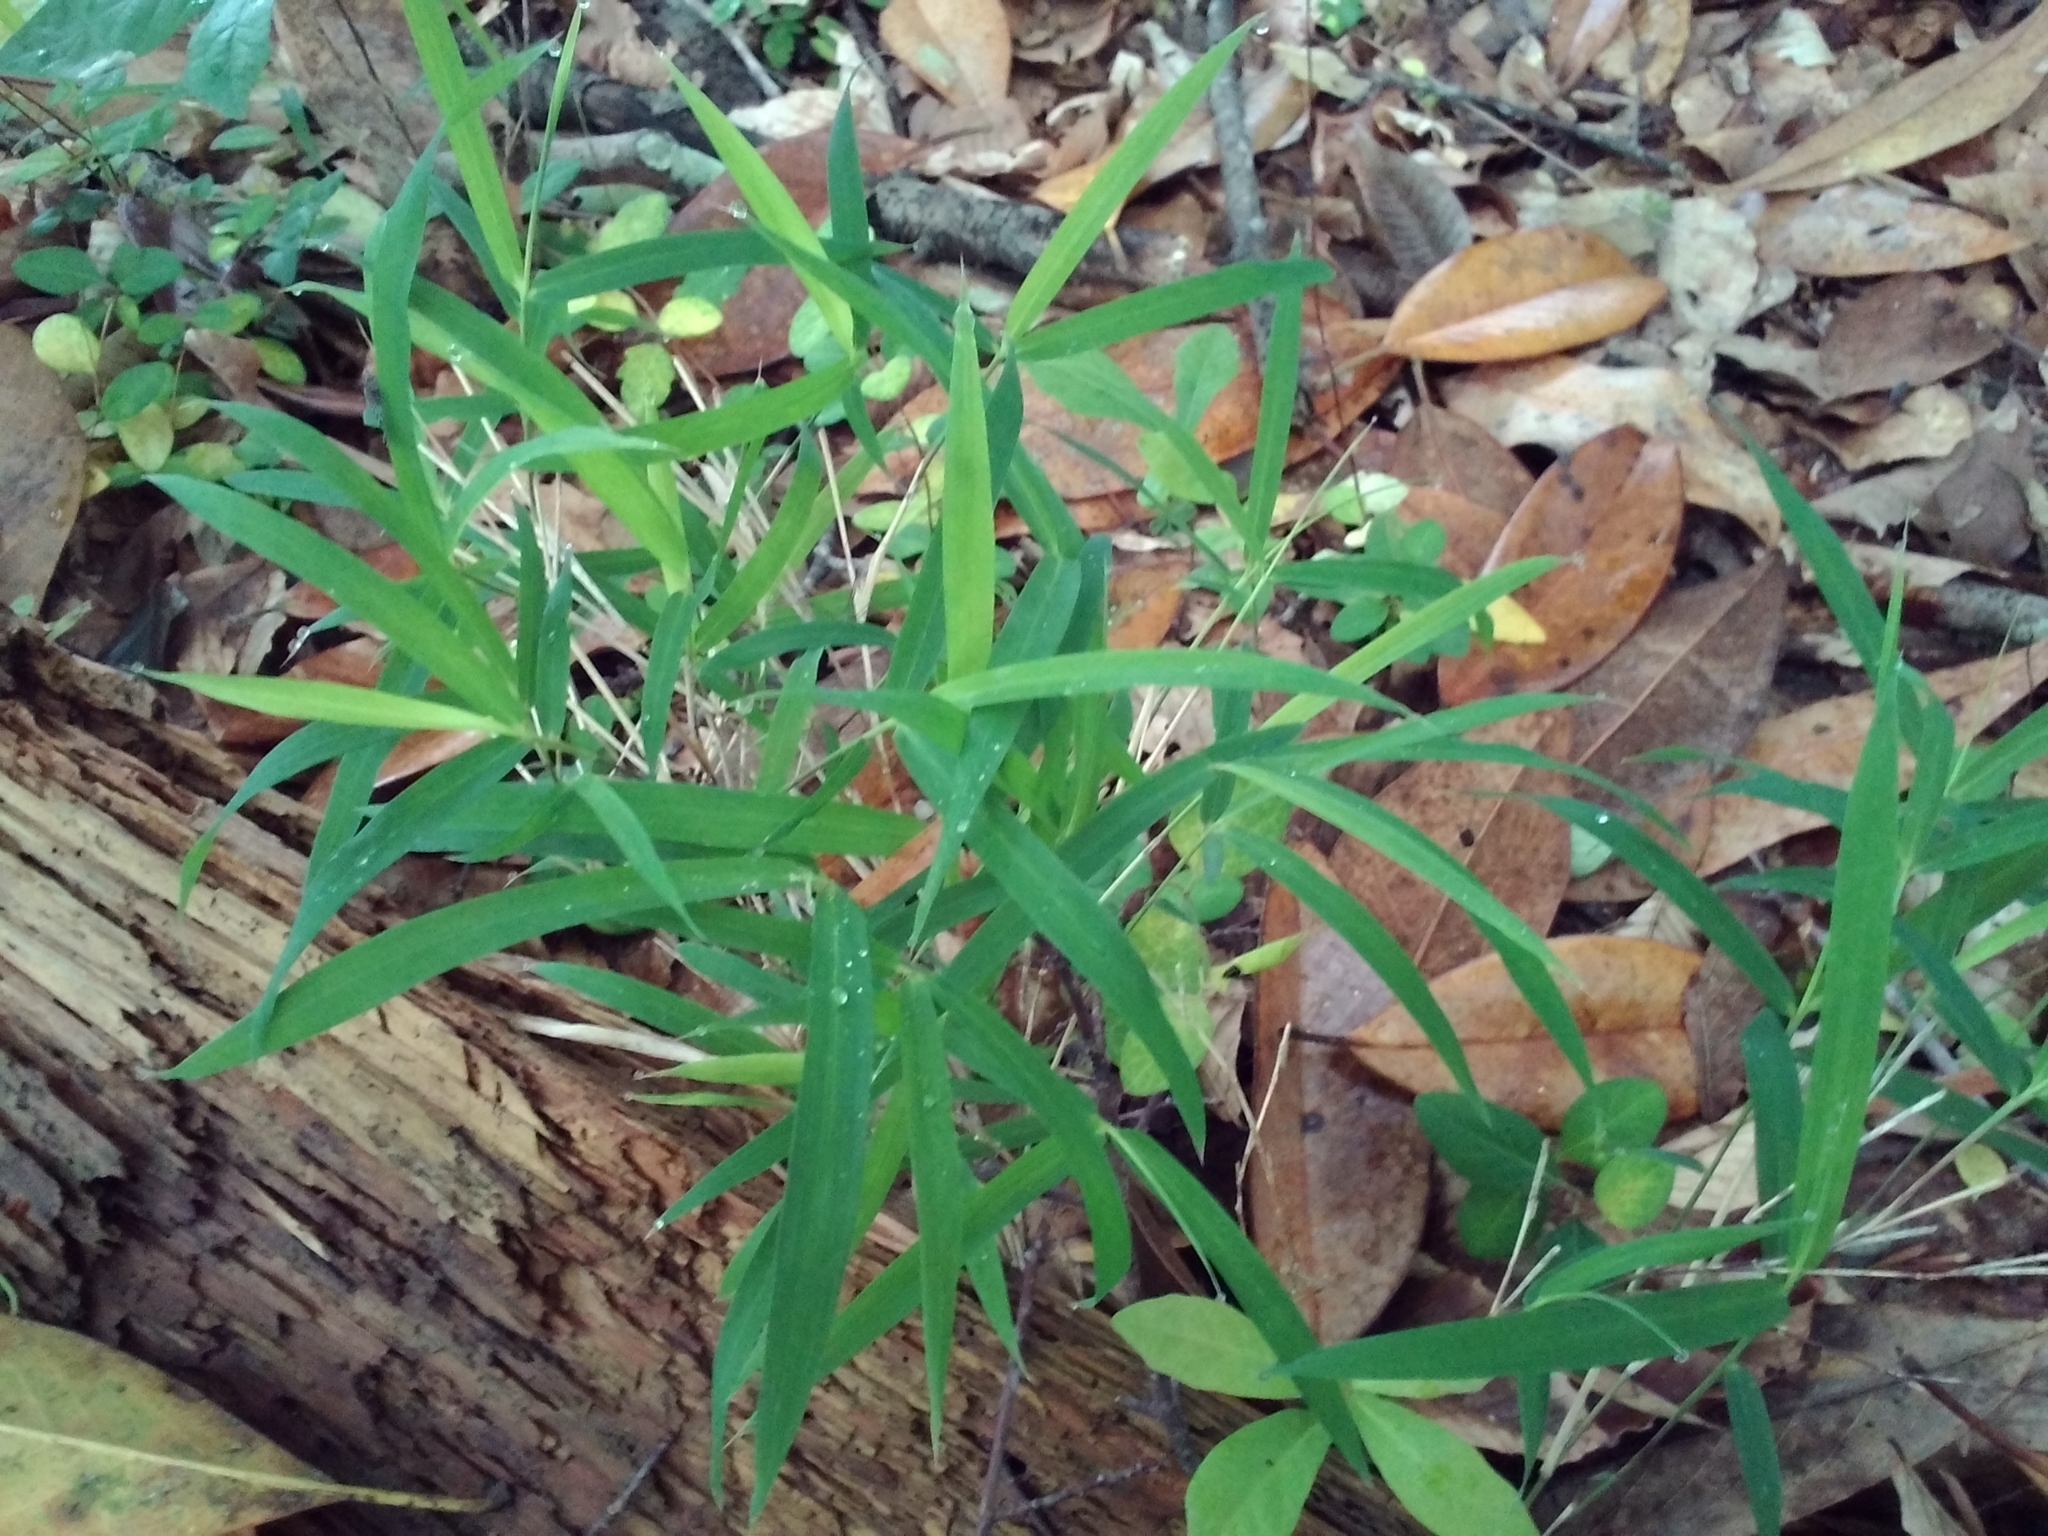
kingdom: Plantae
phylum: Tracheophyta
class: Liliopsida
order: Poales
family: Poaceae
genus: Arundinaria
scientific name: Arundinaria tecta
